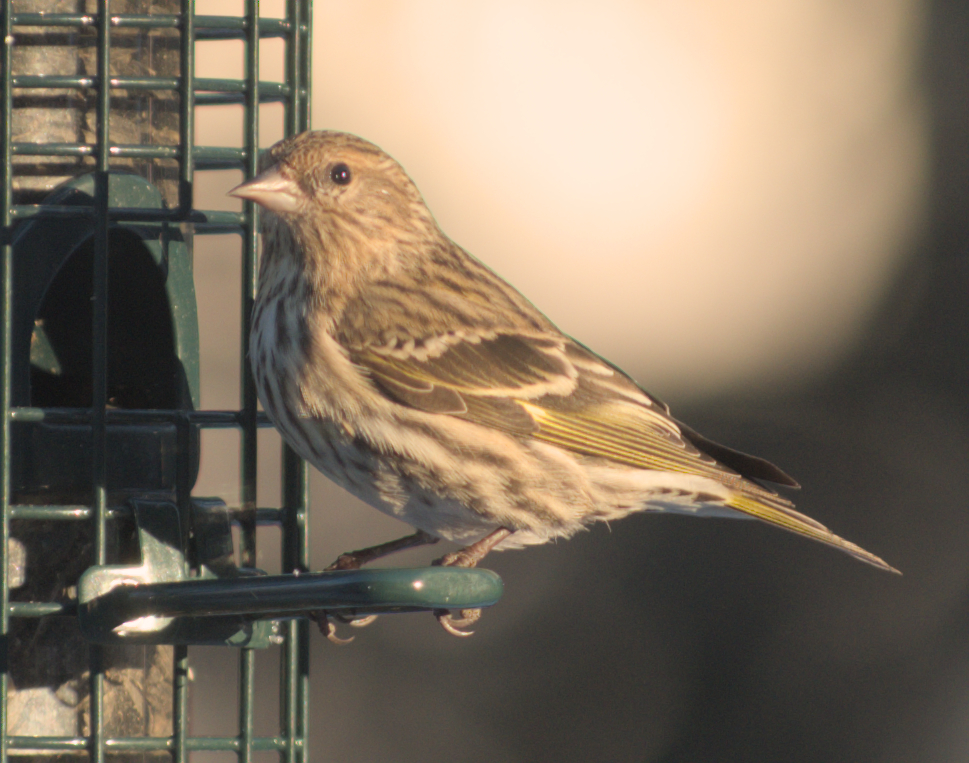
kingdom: Animalia
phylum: Chordata
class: Aves
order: Passeriformes
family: Fringillidae
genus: Spinus
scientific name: Spinus pinus
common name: Pine siskin
